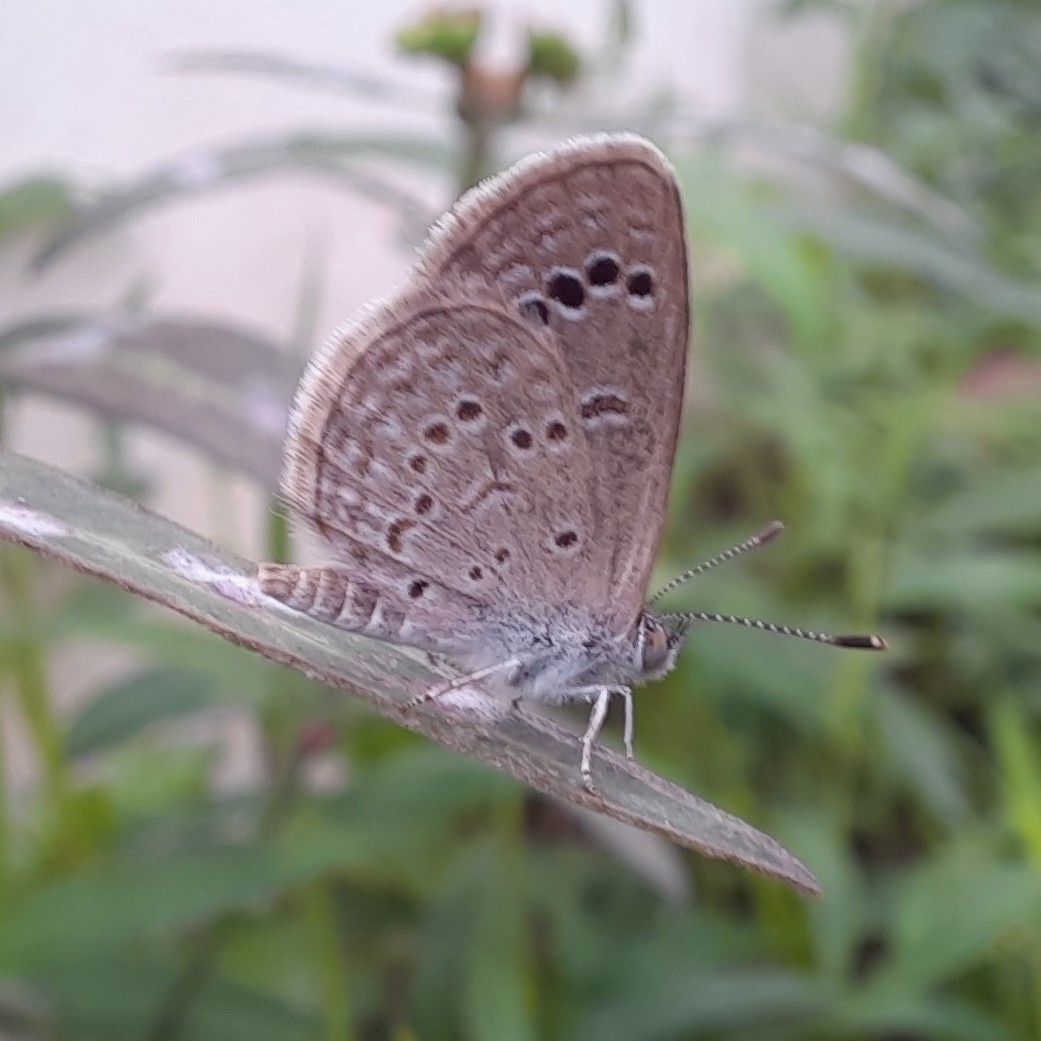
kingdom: Animalia
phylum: Arthropoda
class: Insecta
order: Lepidoptera
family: Lycaenidae
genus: Zizina
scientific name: Zizina otis
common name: Lesser grass blue
